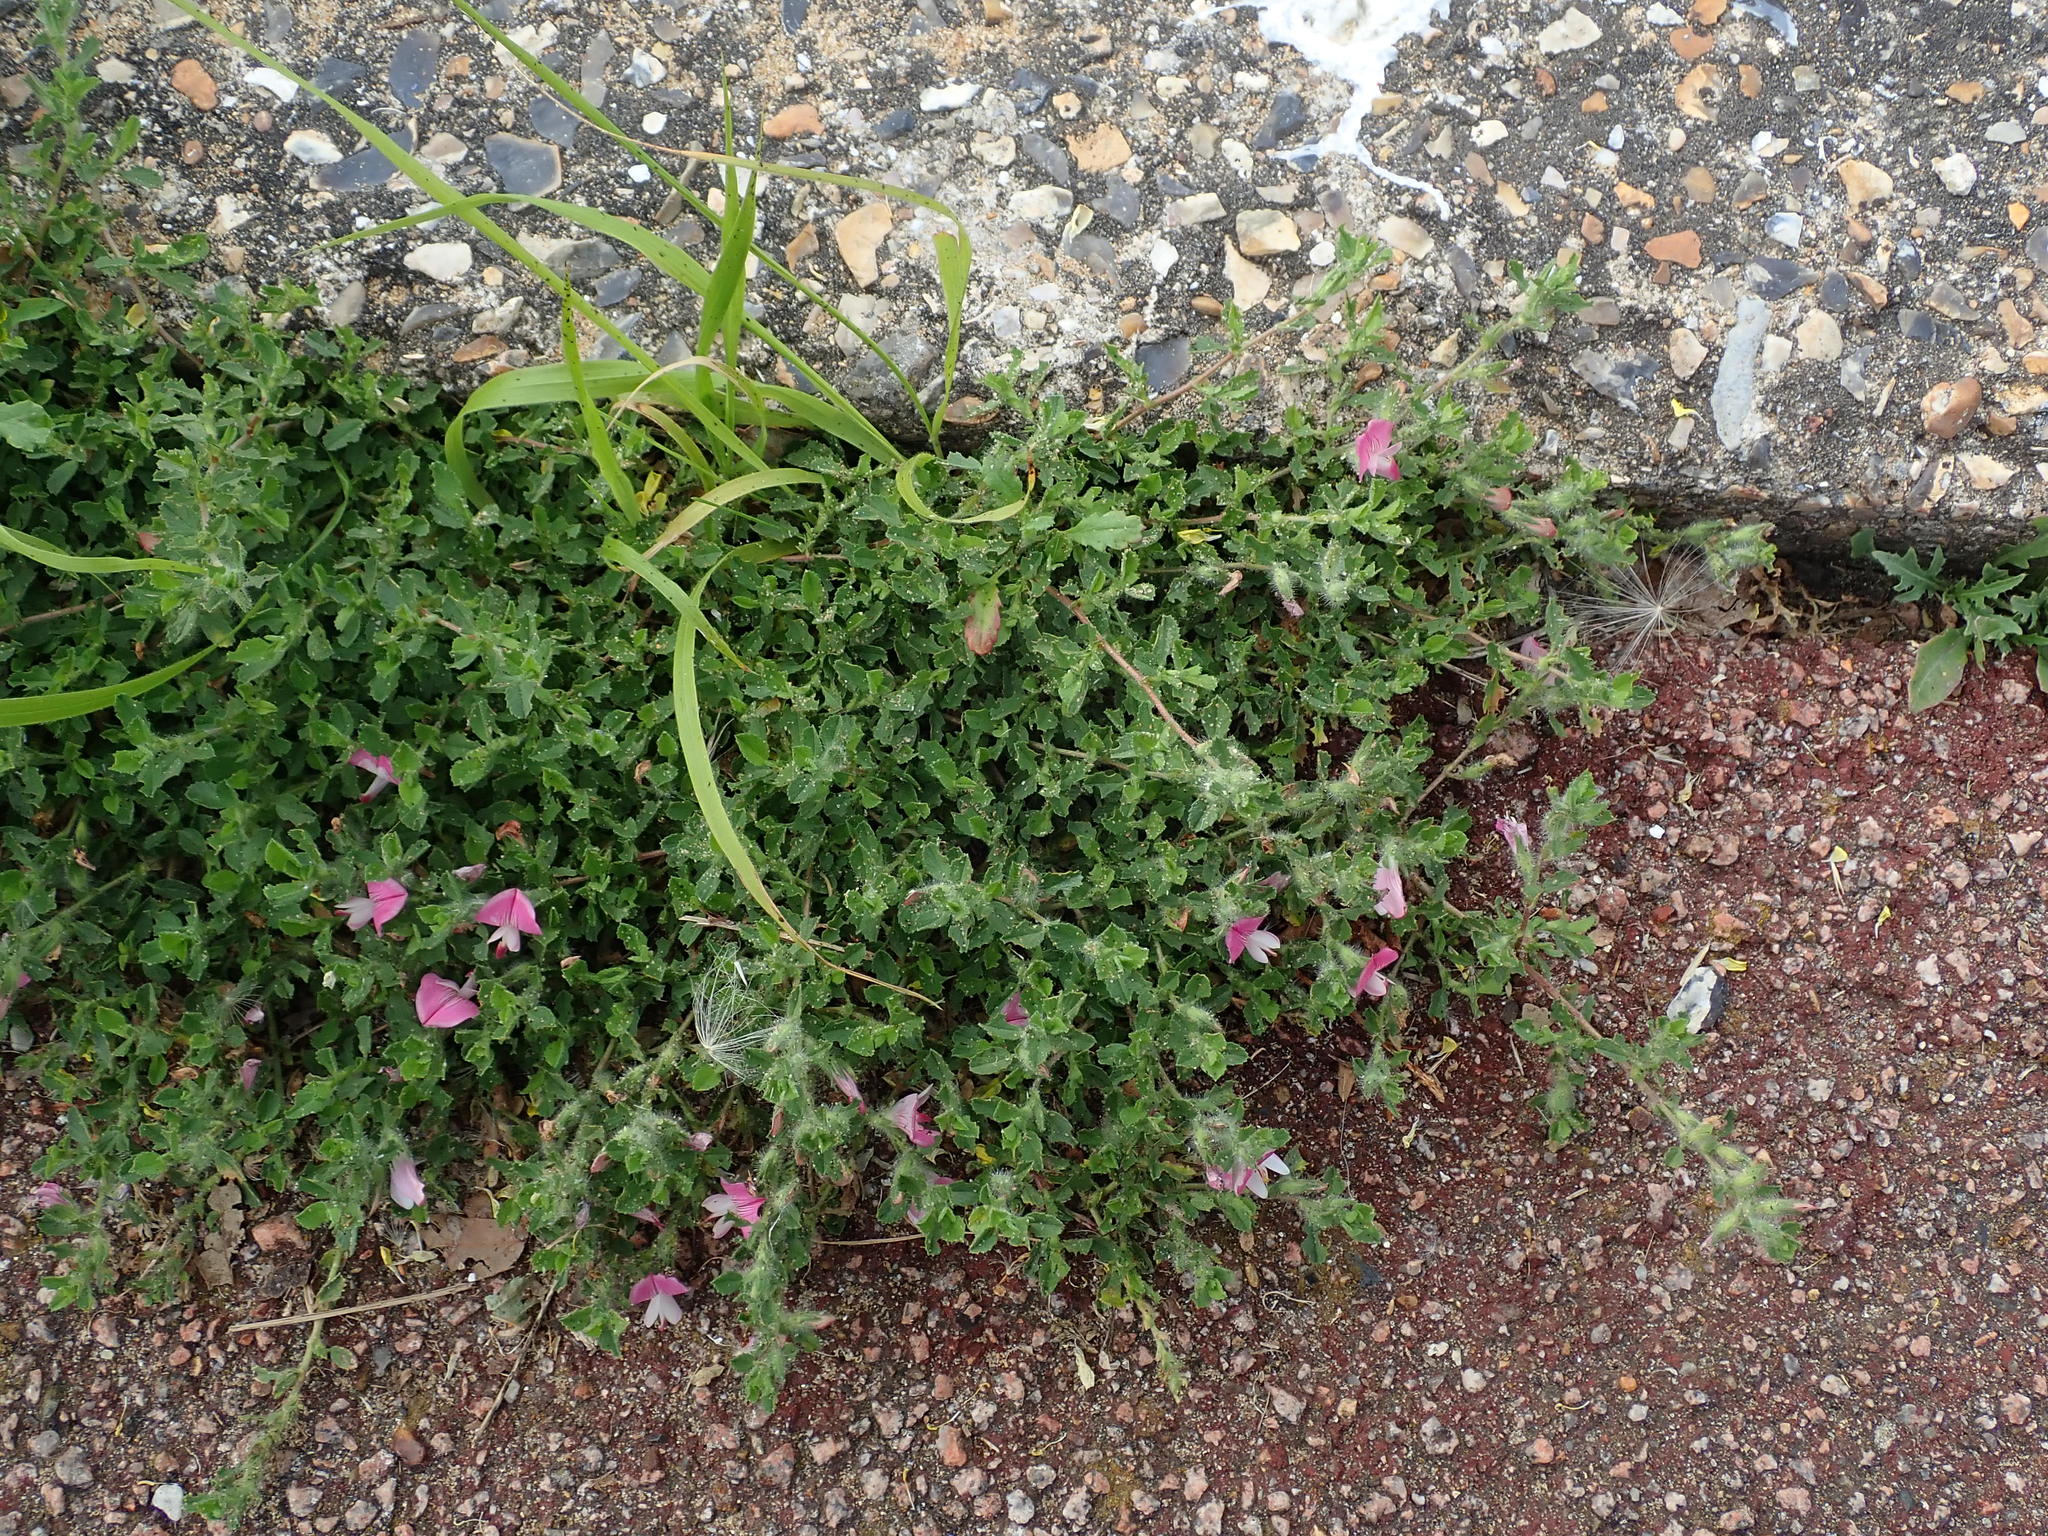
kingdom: Plantae
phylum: Tracheophyta
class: Magnoliopsida
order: Fabales
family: Fabaceae
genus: Ononis
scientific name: Ononis spinosa
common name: Spiny restharrow
